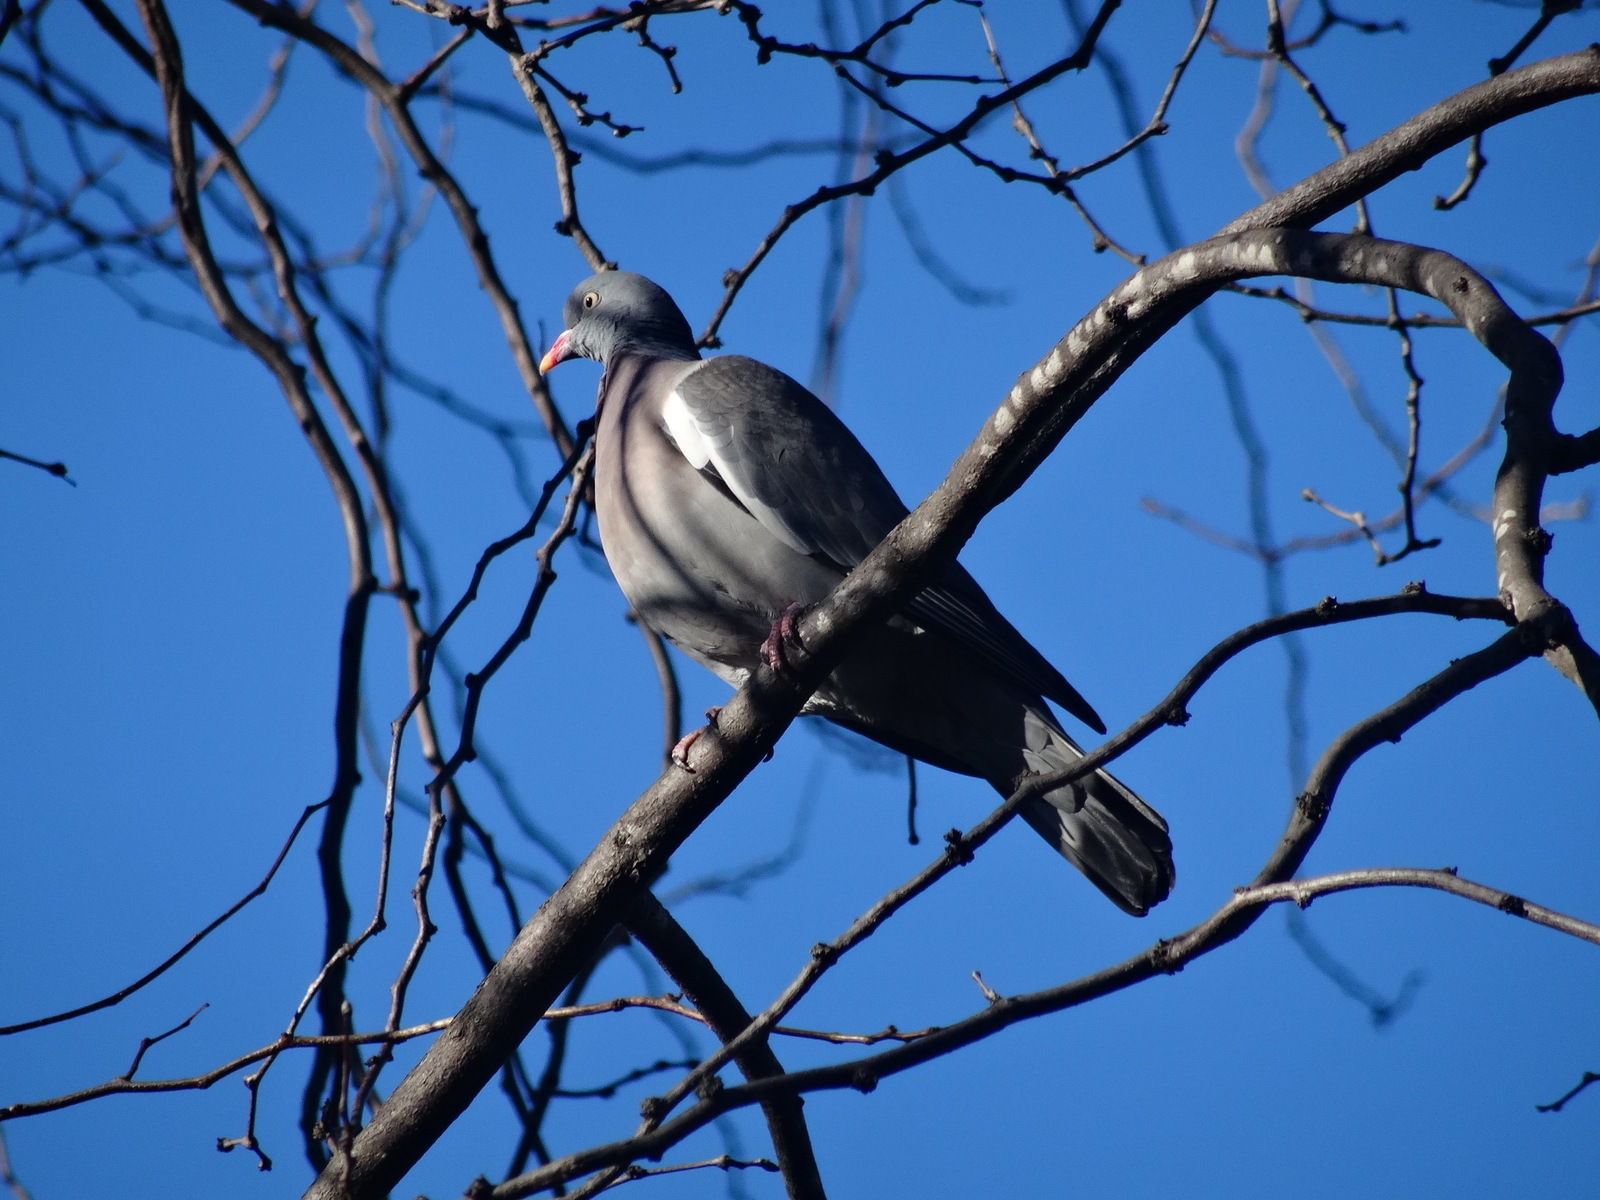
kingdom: Animalia
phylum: Chordata
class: Aves
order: Columbiformes
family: Columbidae
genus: Columba
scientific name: Columba palumbus
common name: Common wood pigeon
